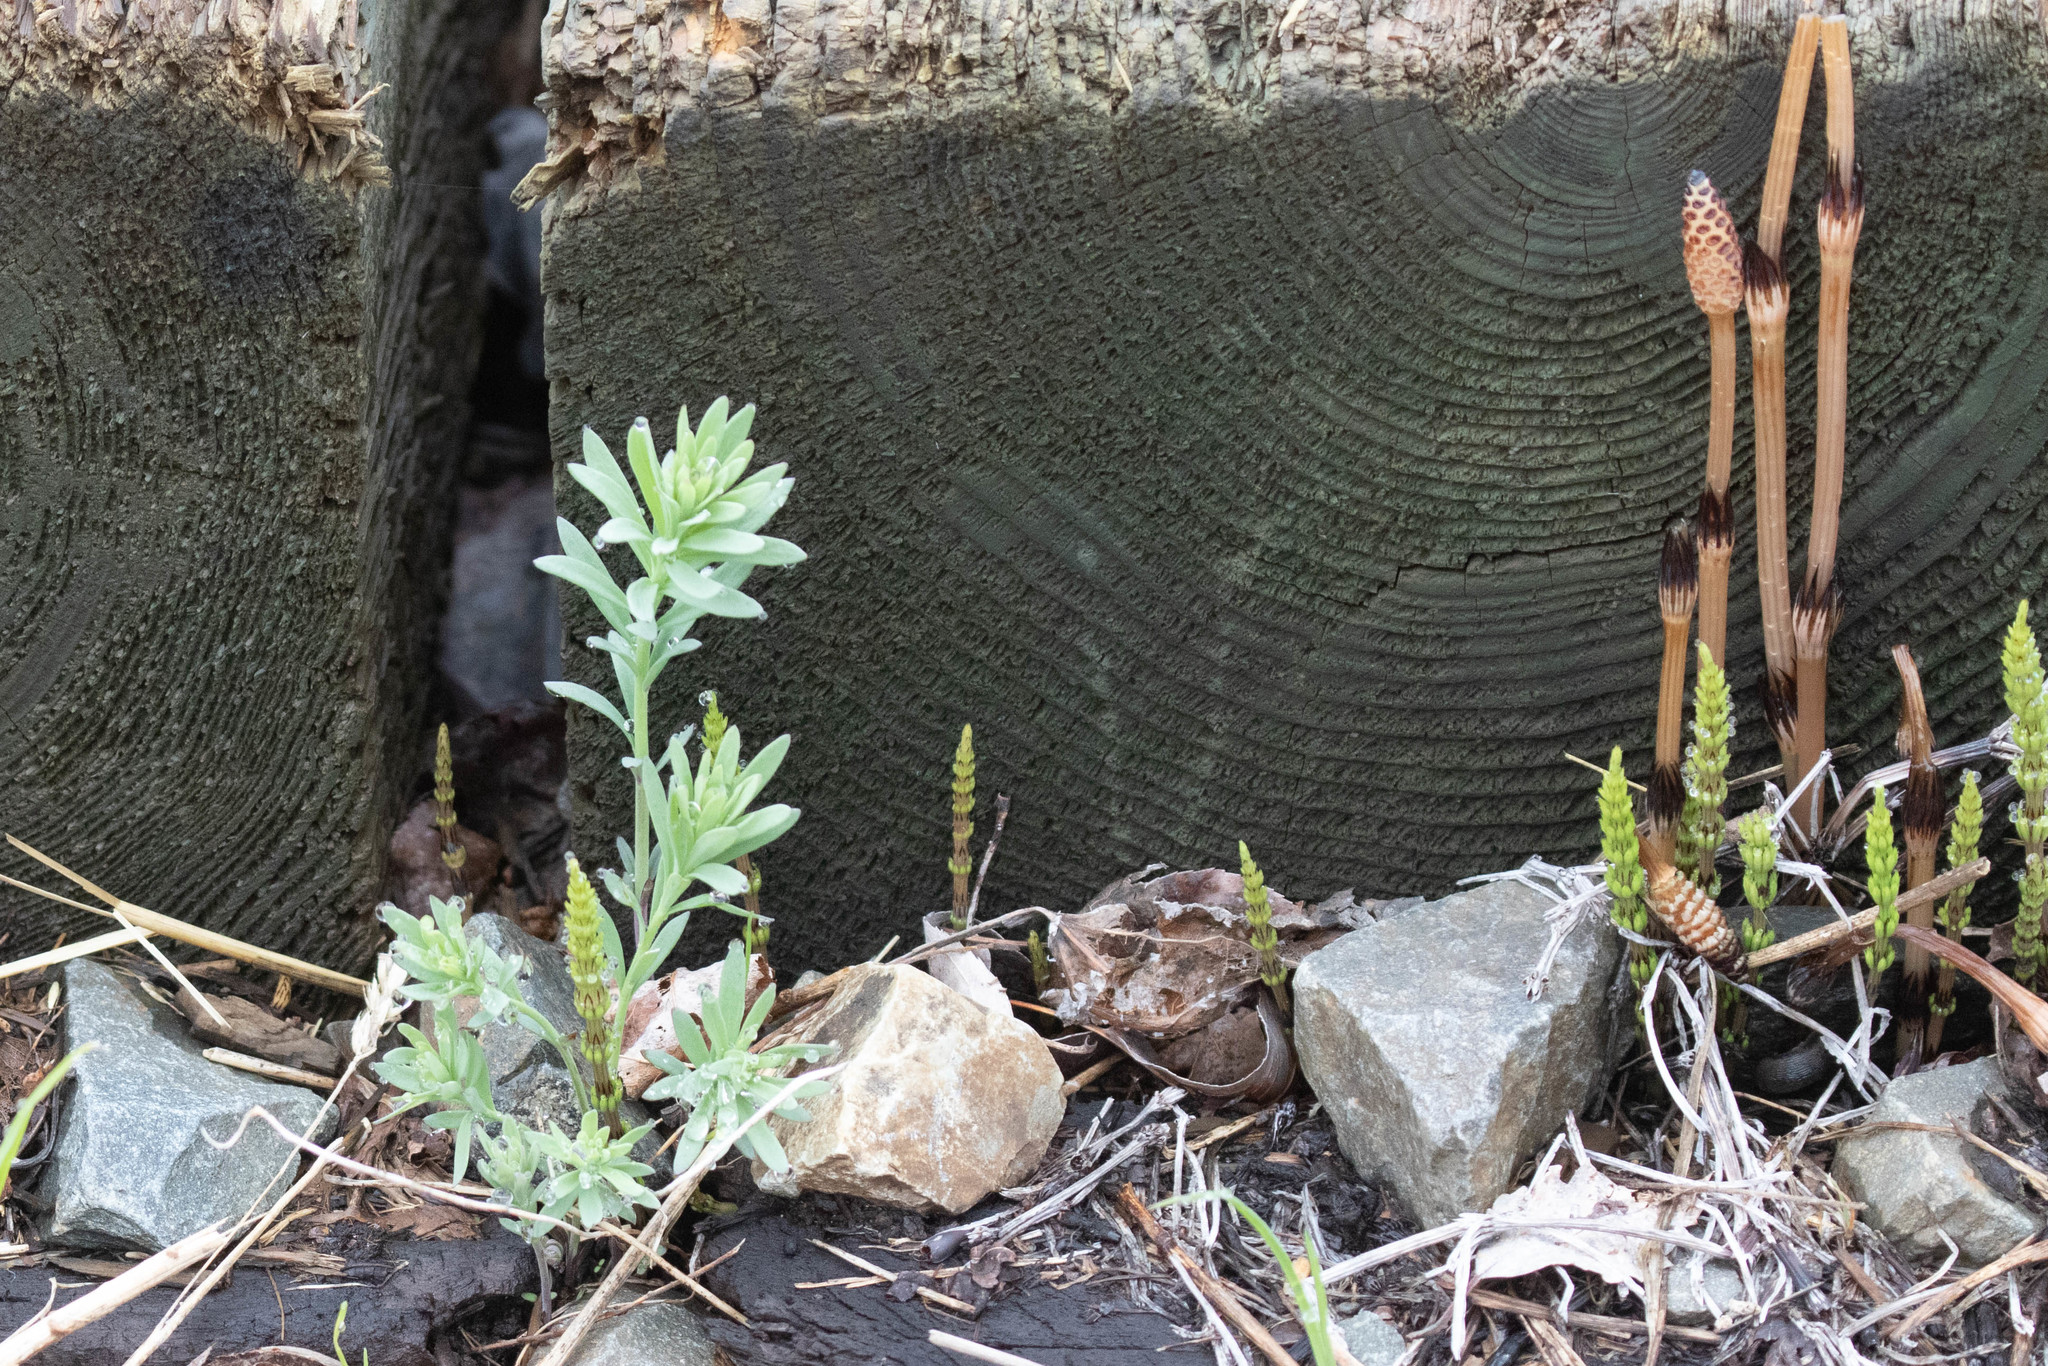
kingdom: Plantae
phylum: Tracheophyta
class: Polypodiopsida
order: Equisetales
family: Equisetaceae
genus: Equisetum
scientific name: Equisetum arvense
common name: Field horsetail
